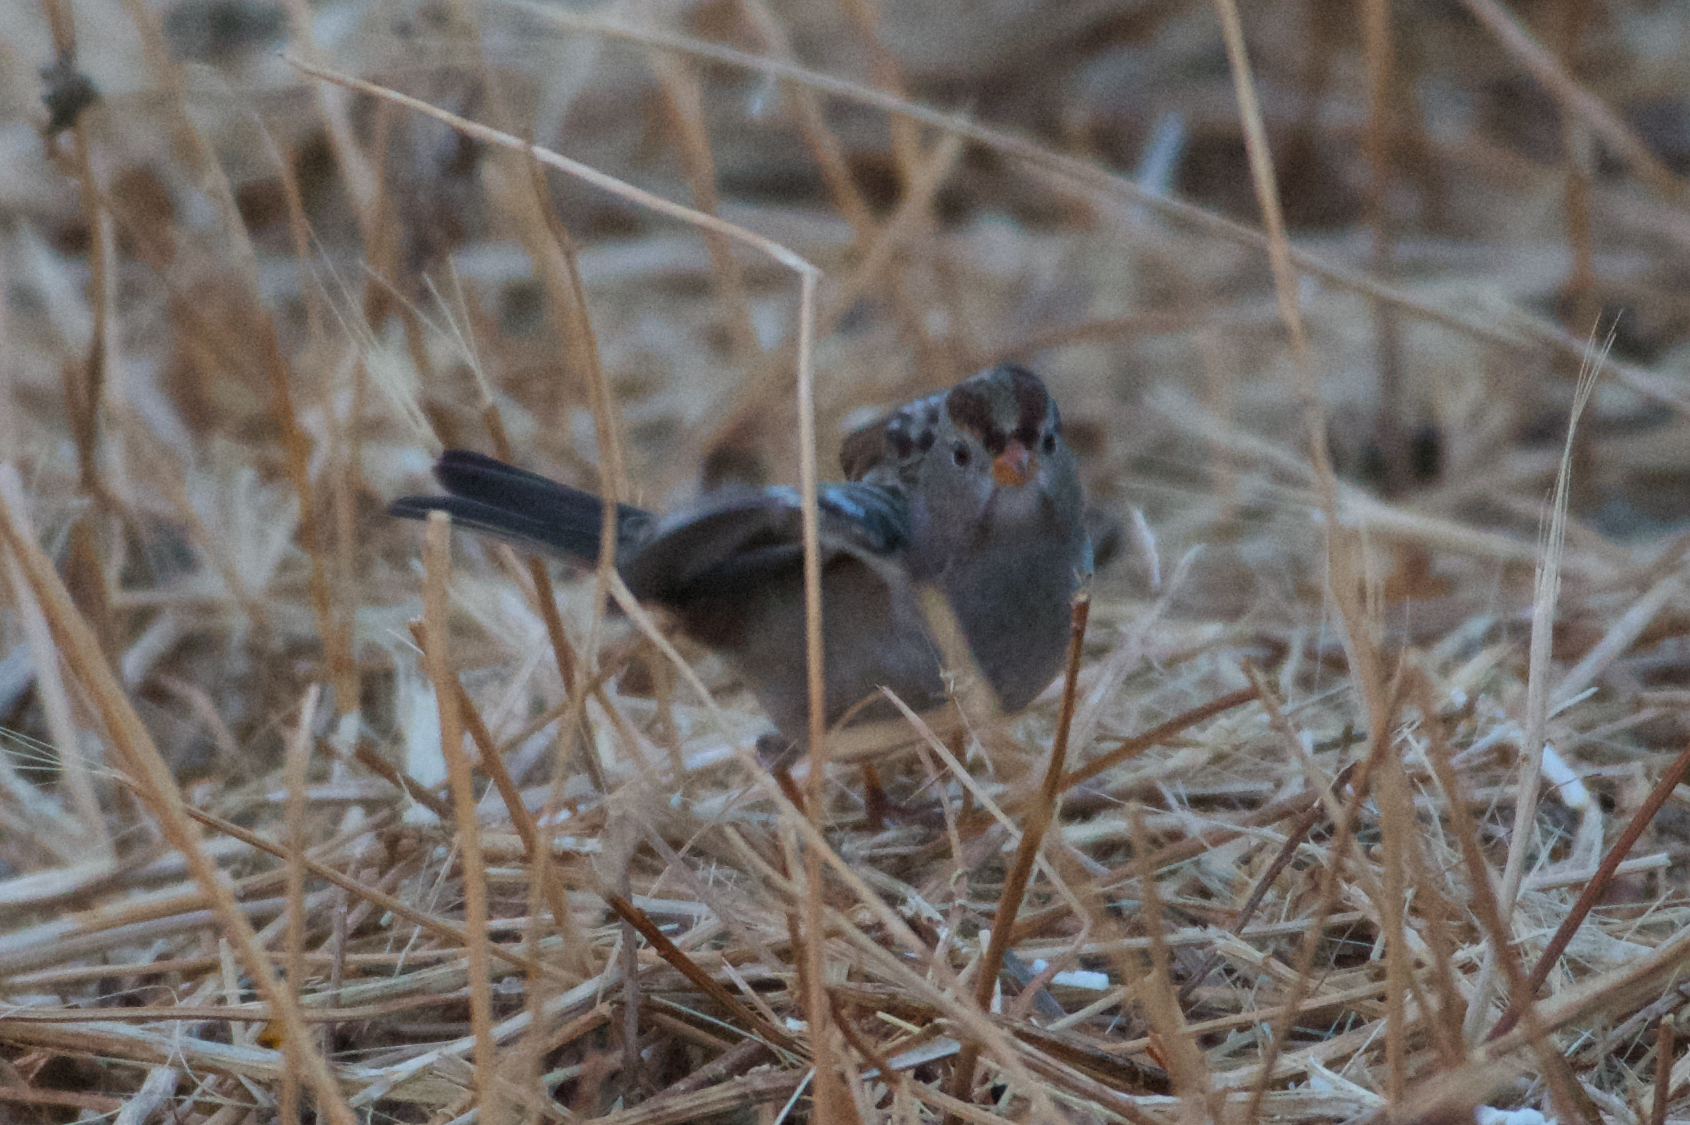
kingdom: Animalia
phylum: Chordata
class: Aves
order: Passeriformes
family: Passerellidae
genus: Zonotrichia
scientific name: Zonotrichia leucophrys
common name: White-crowned sparrow
